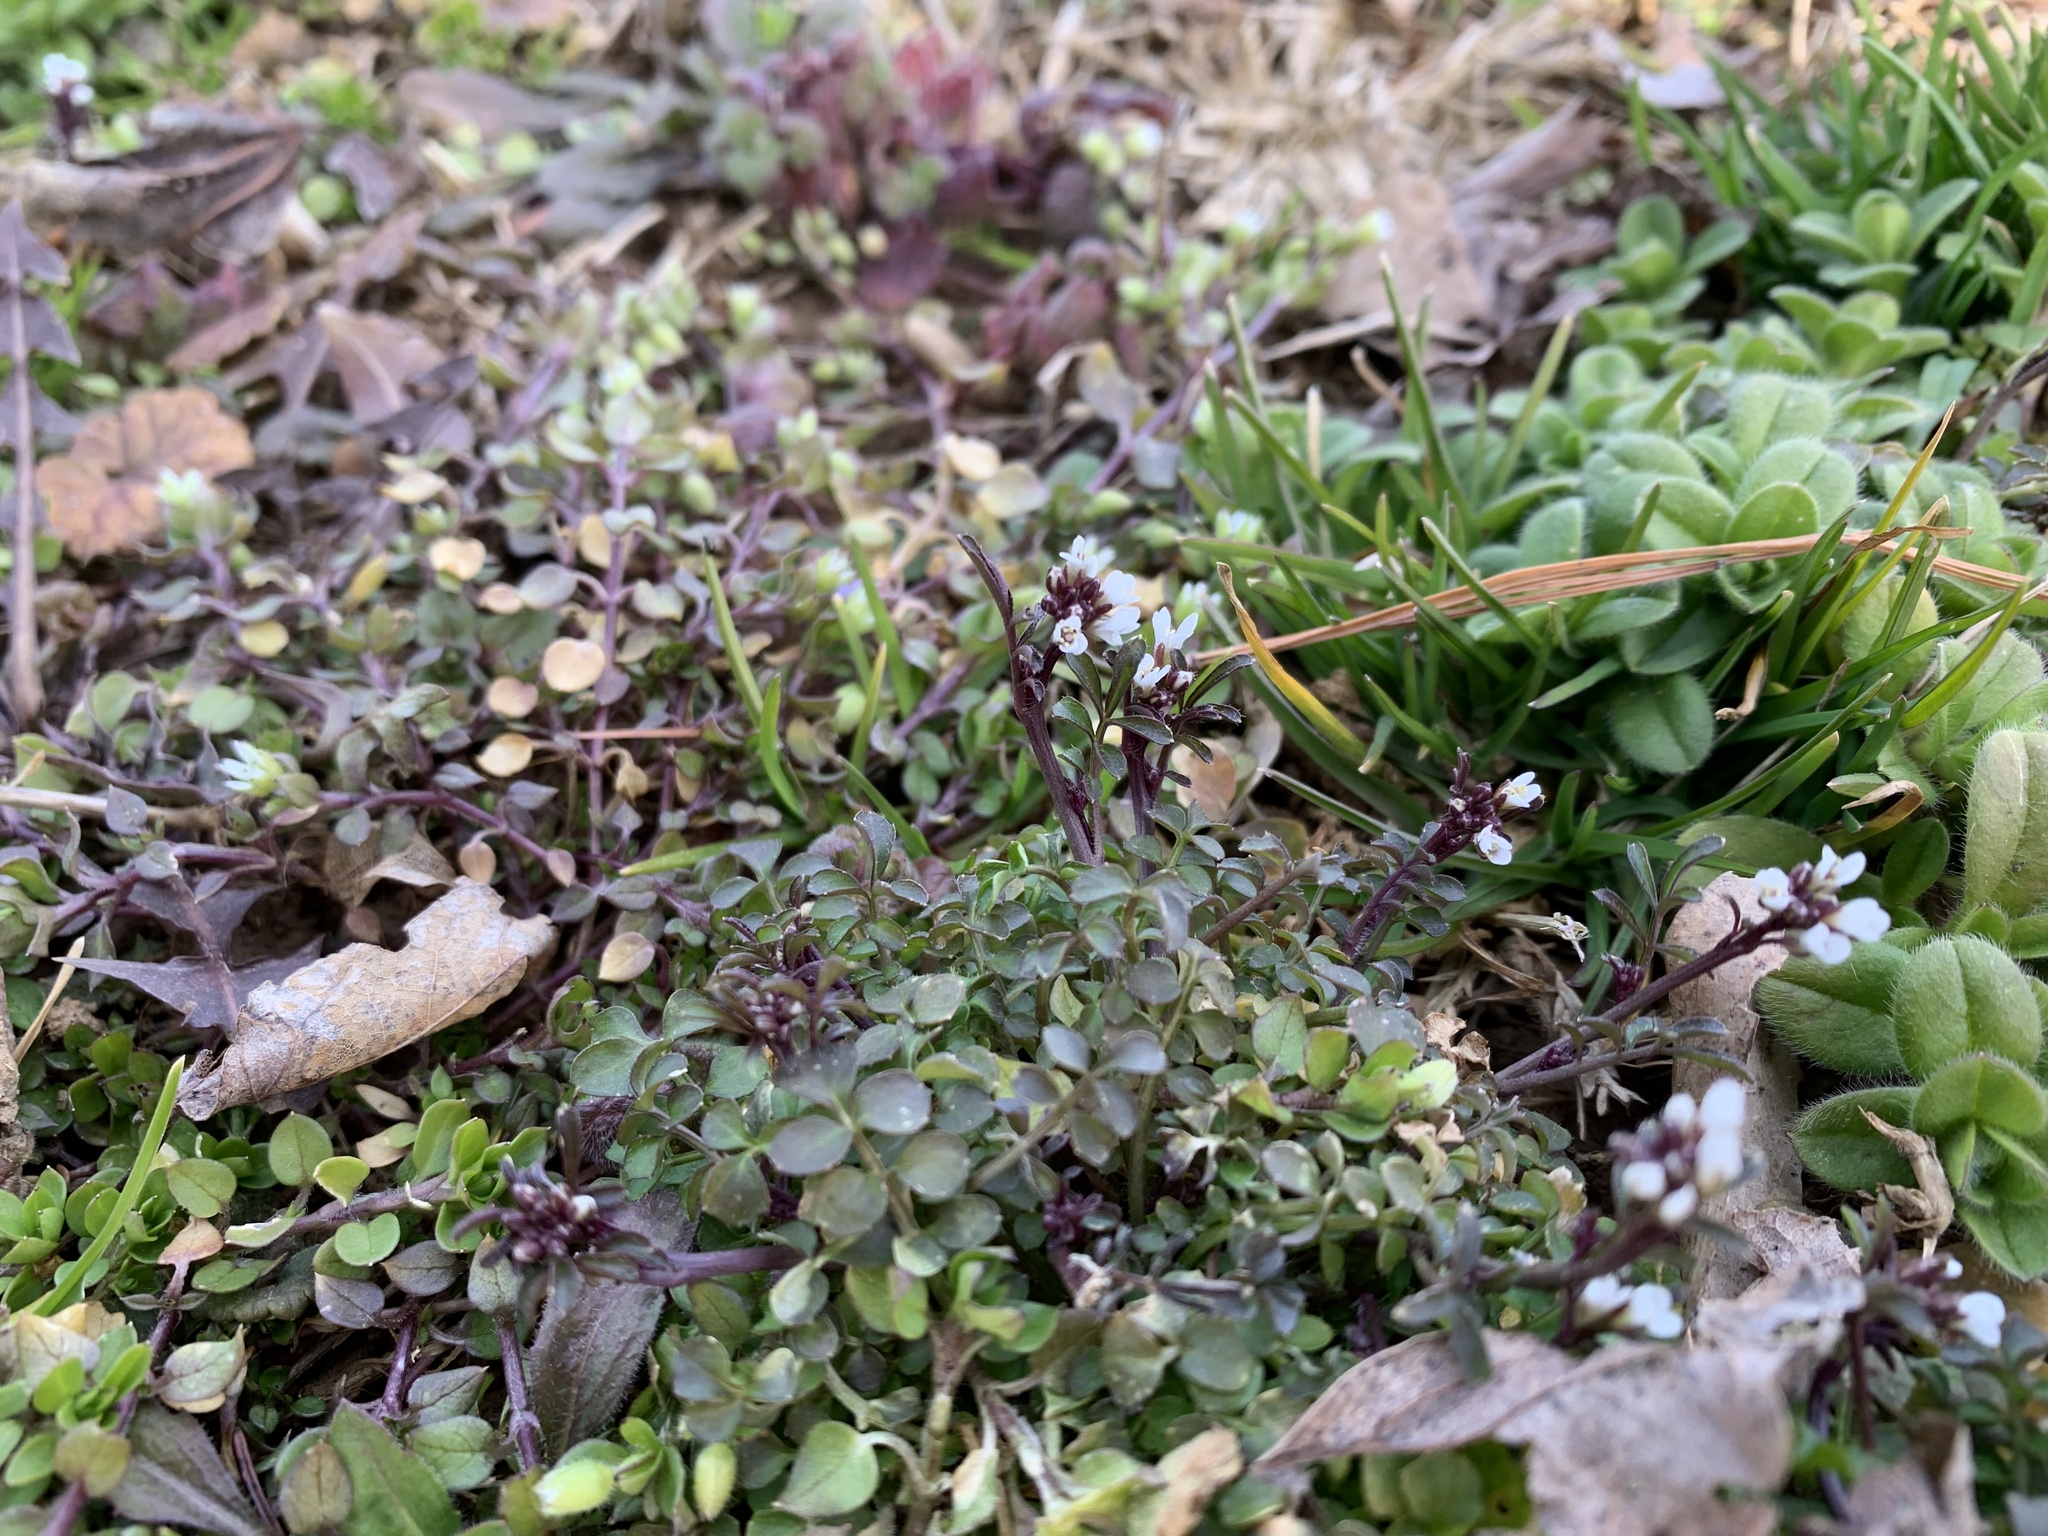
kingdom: Plantae
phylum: Tracheophyta
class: Magnoliopsida
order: Brassicales
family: Brassicaceae
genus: Cardamine
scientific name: Cardamine hirsuta
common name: Hairy bittercress
